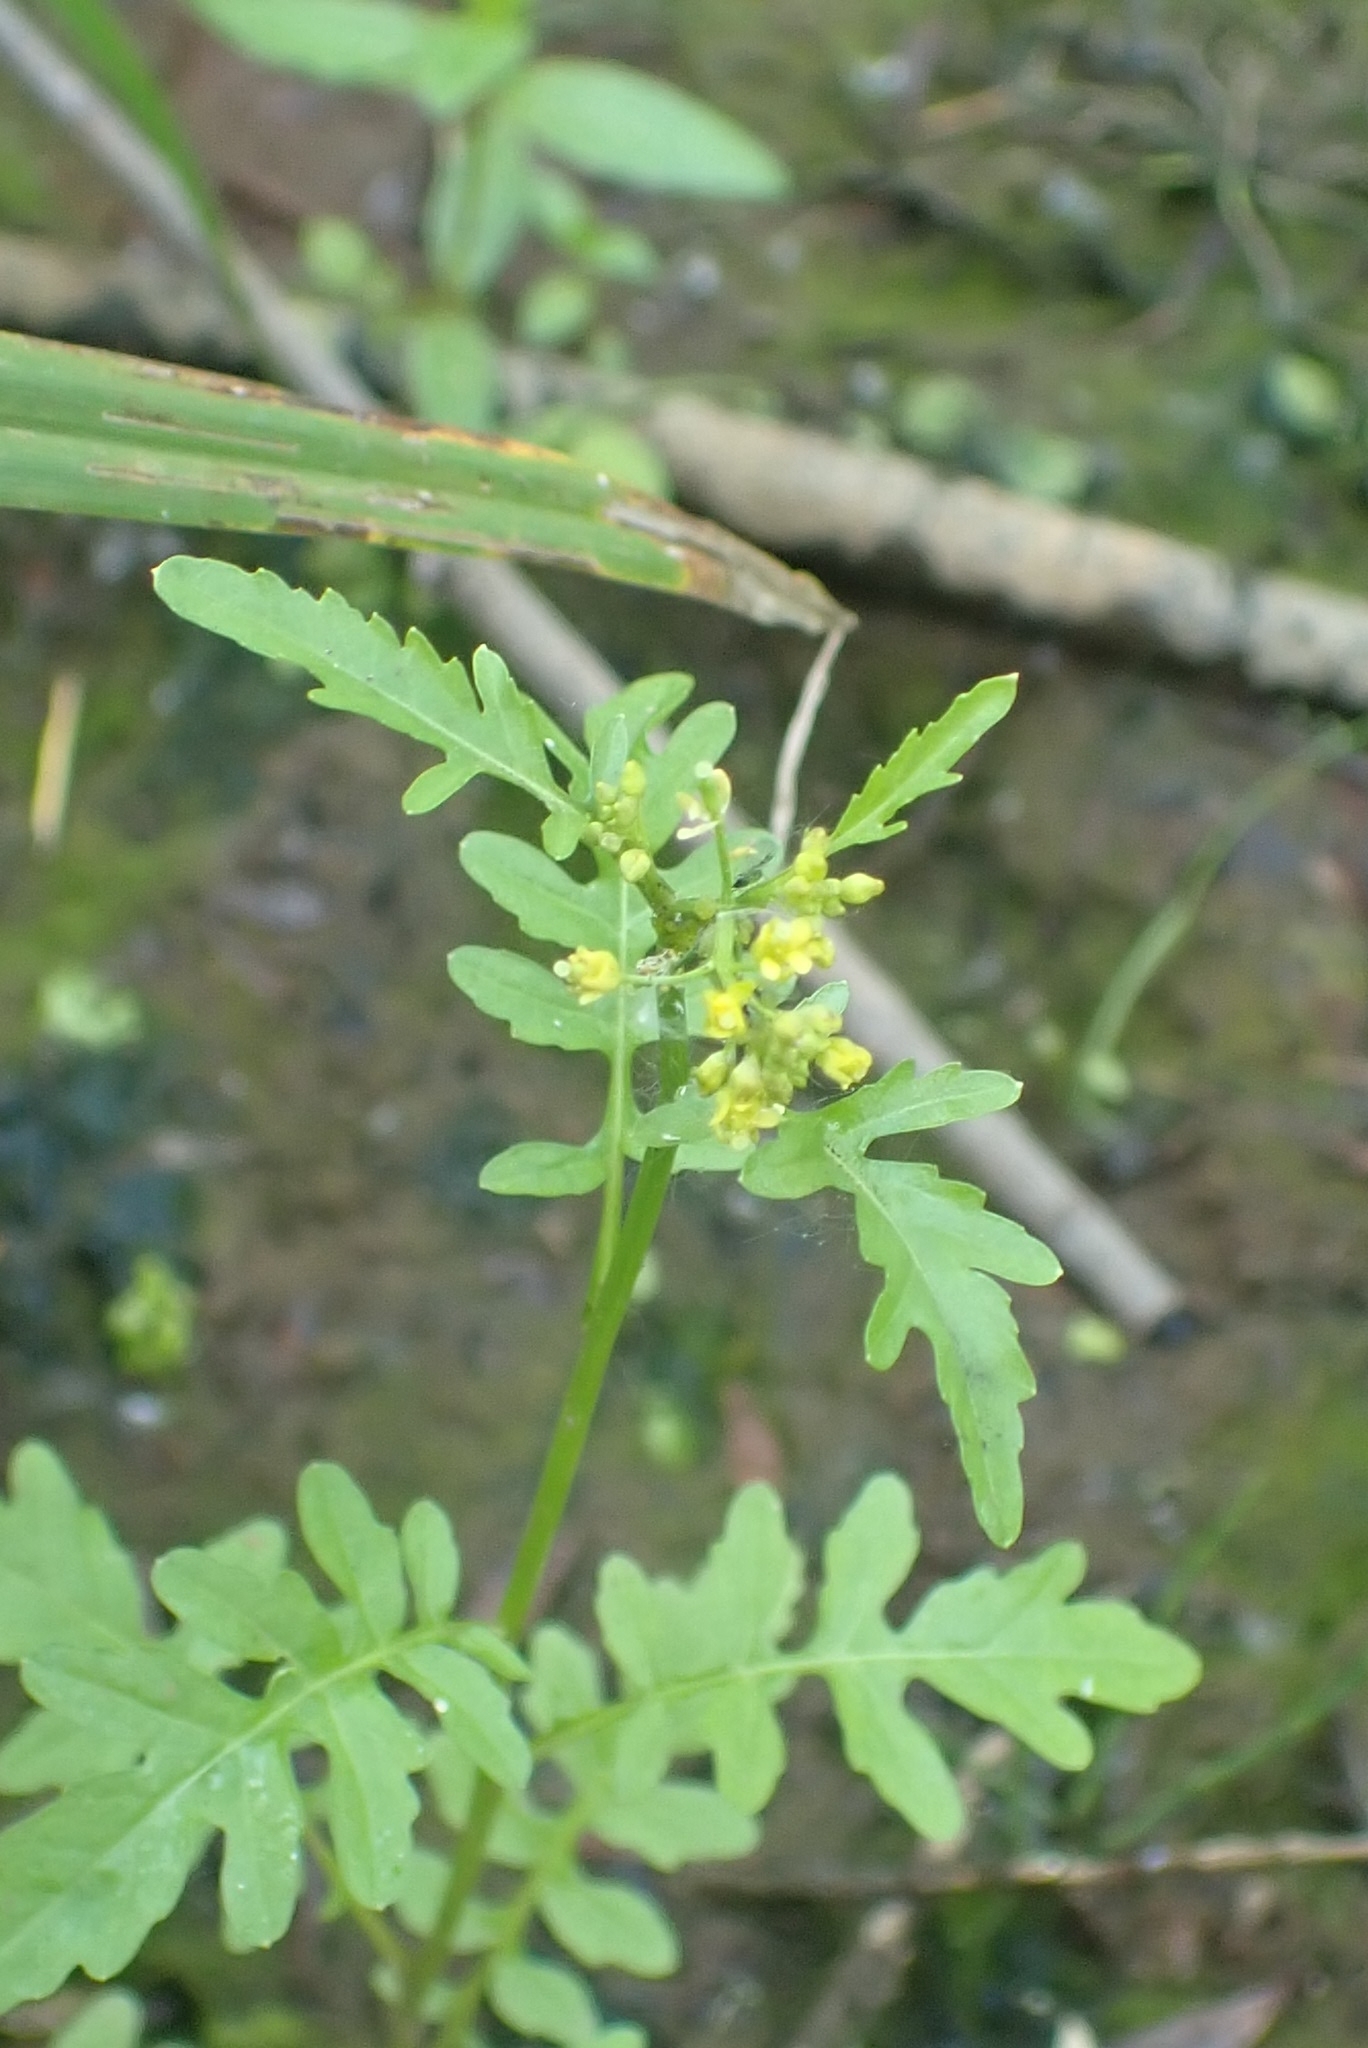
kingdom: Plantae
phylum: Tracheophyta
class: Magnoliopsida
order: Brassicales
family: Brassicaceae
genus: Rorippa
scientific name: Rorippa palustris
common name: Marsh yellow-cress
